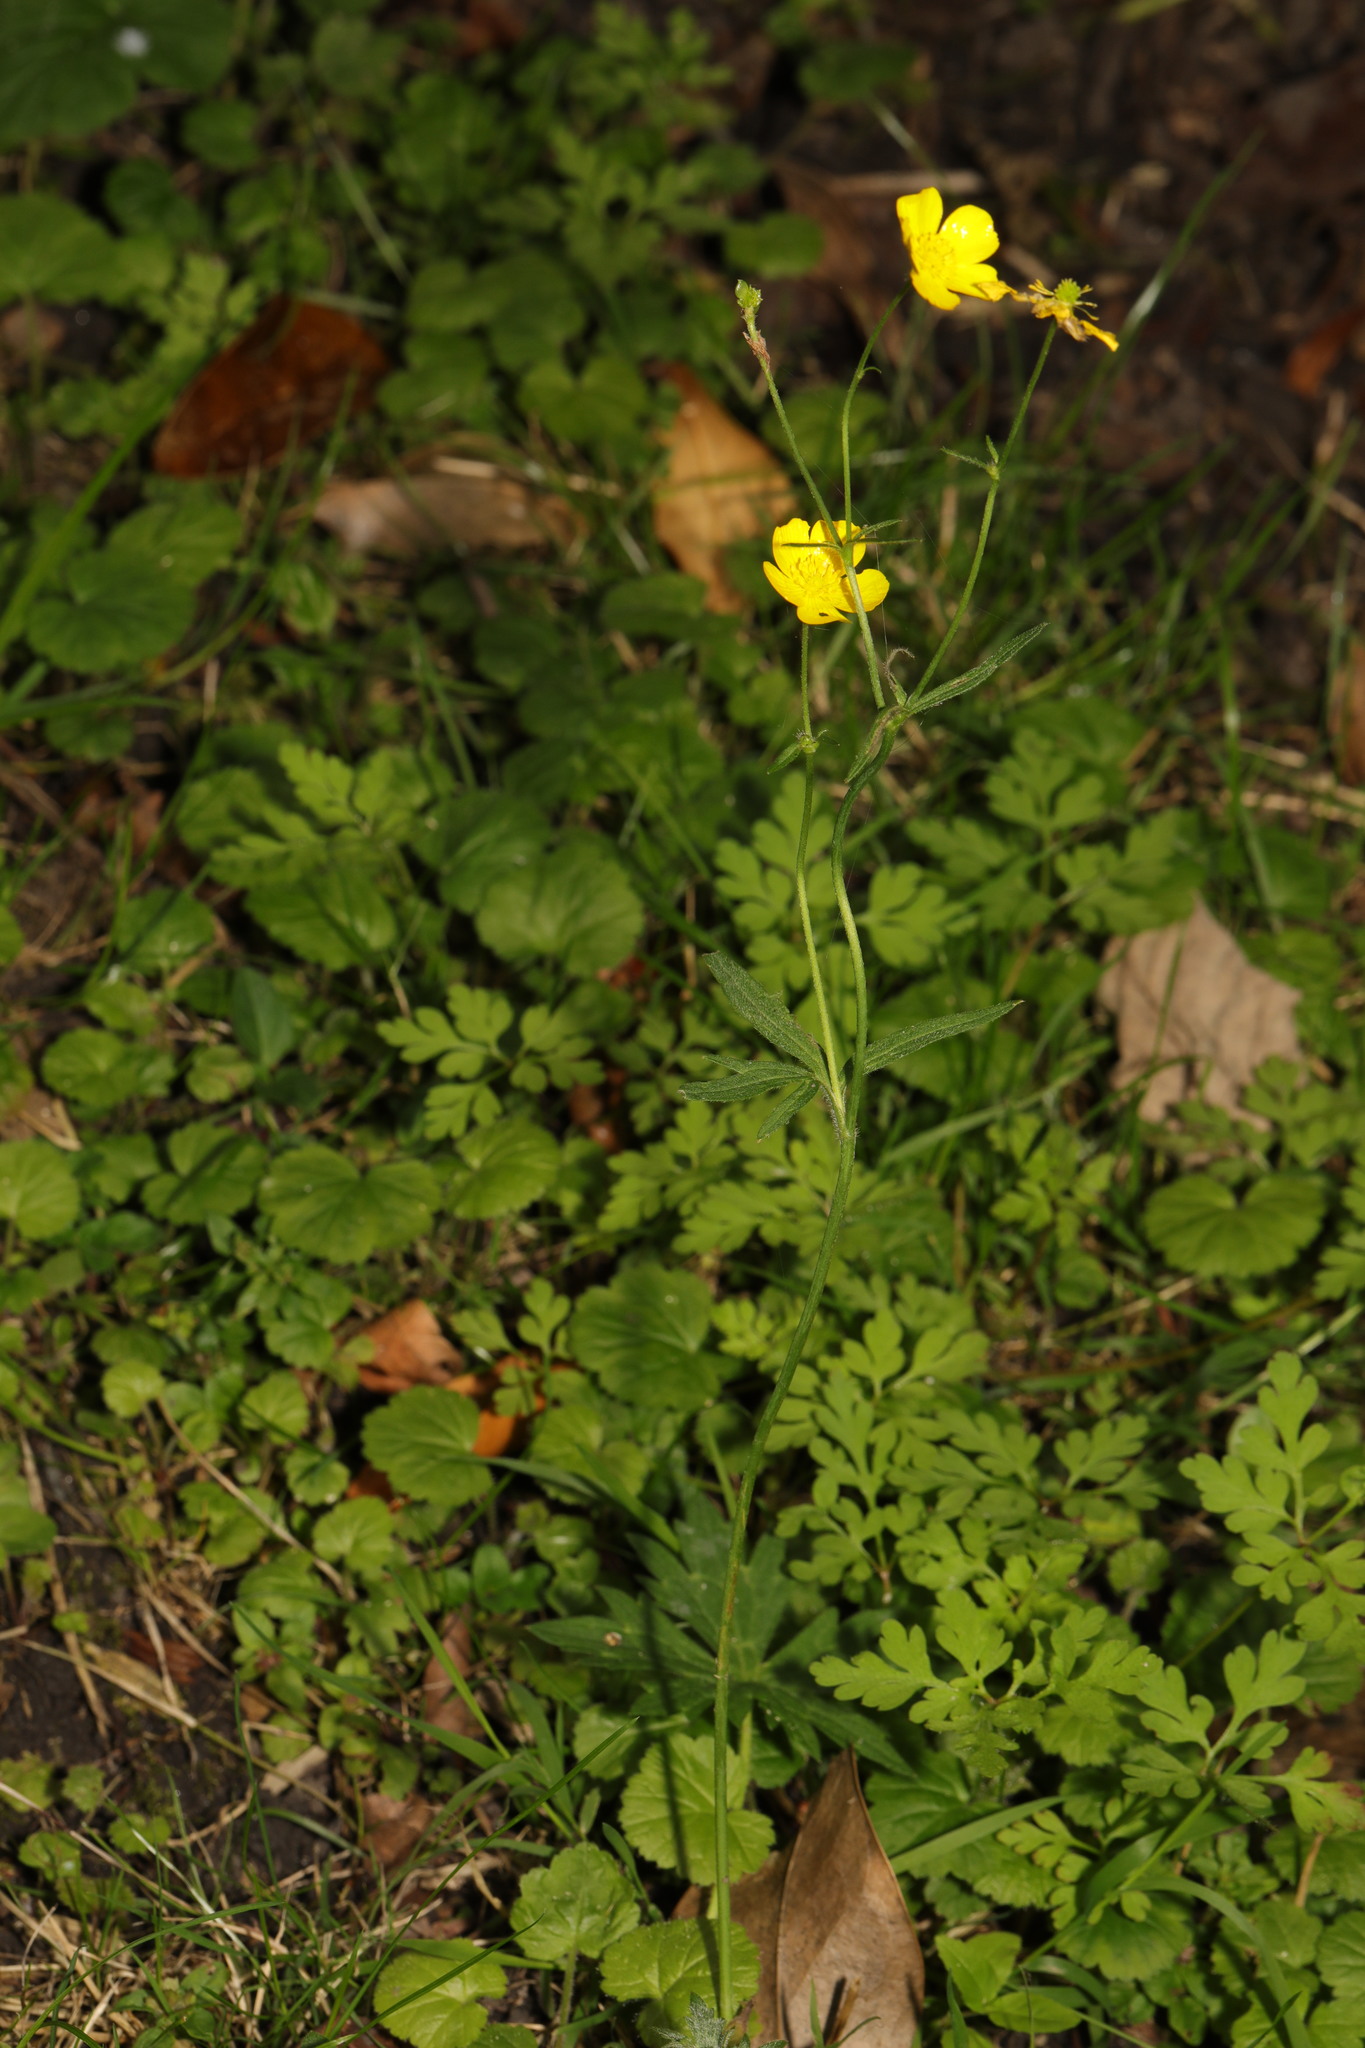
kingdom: Plantae
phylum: Tracheophyta
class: Magnoliopsida
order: Ranunculales
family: Ranunculaceae
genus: Ranunculus
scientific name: Ranunculus repens
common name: Creeping buttercup
